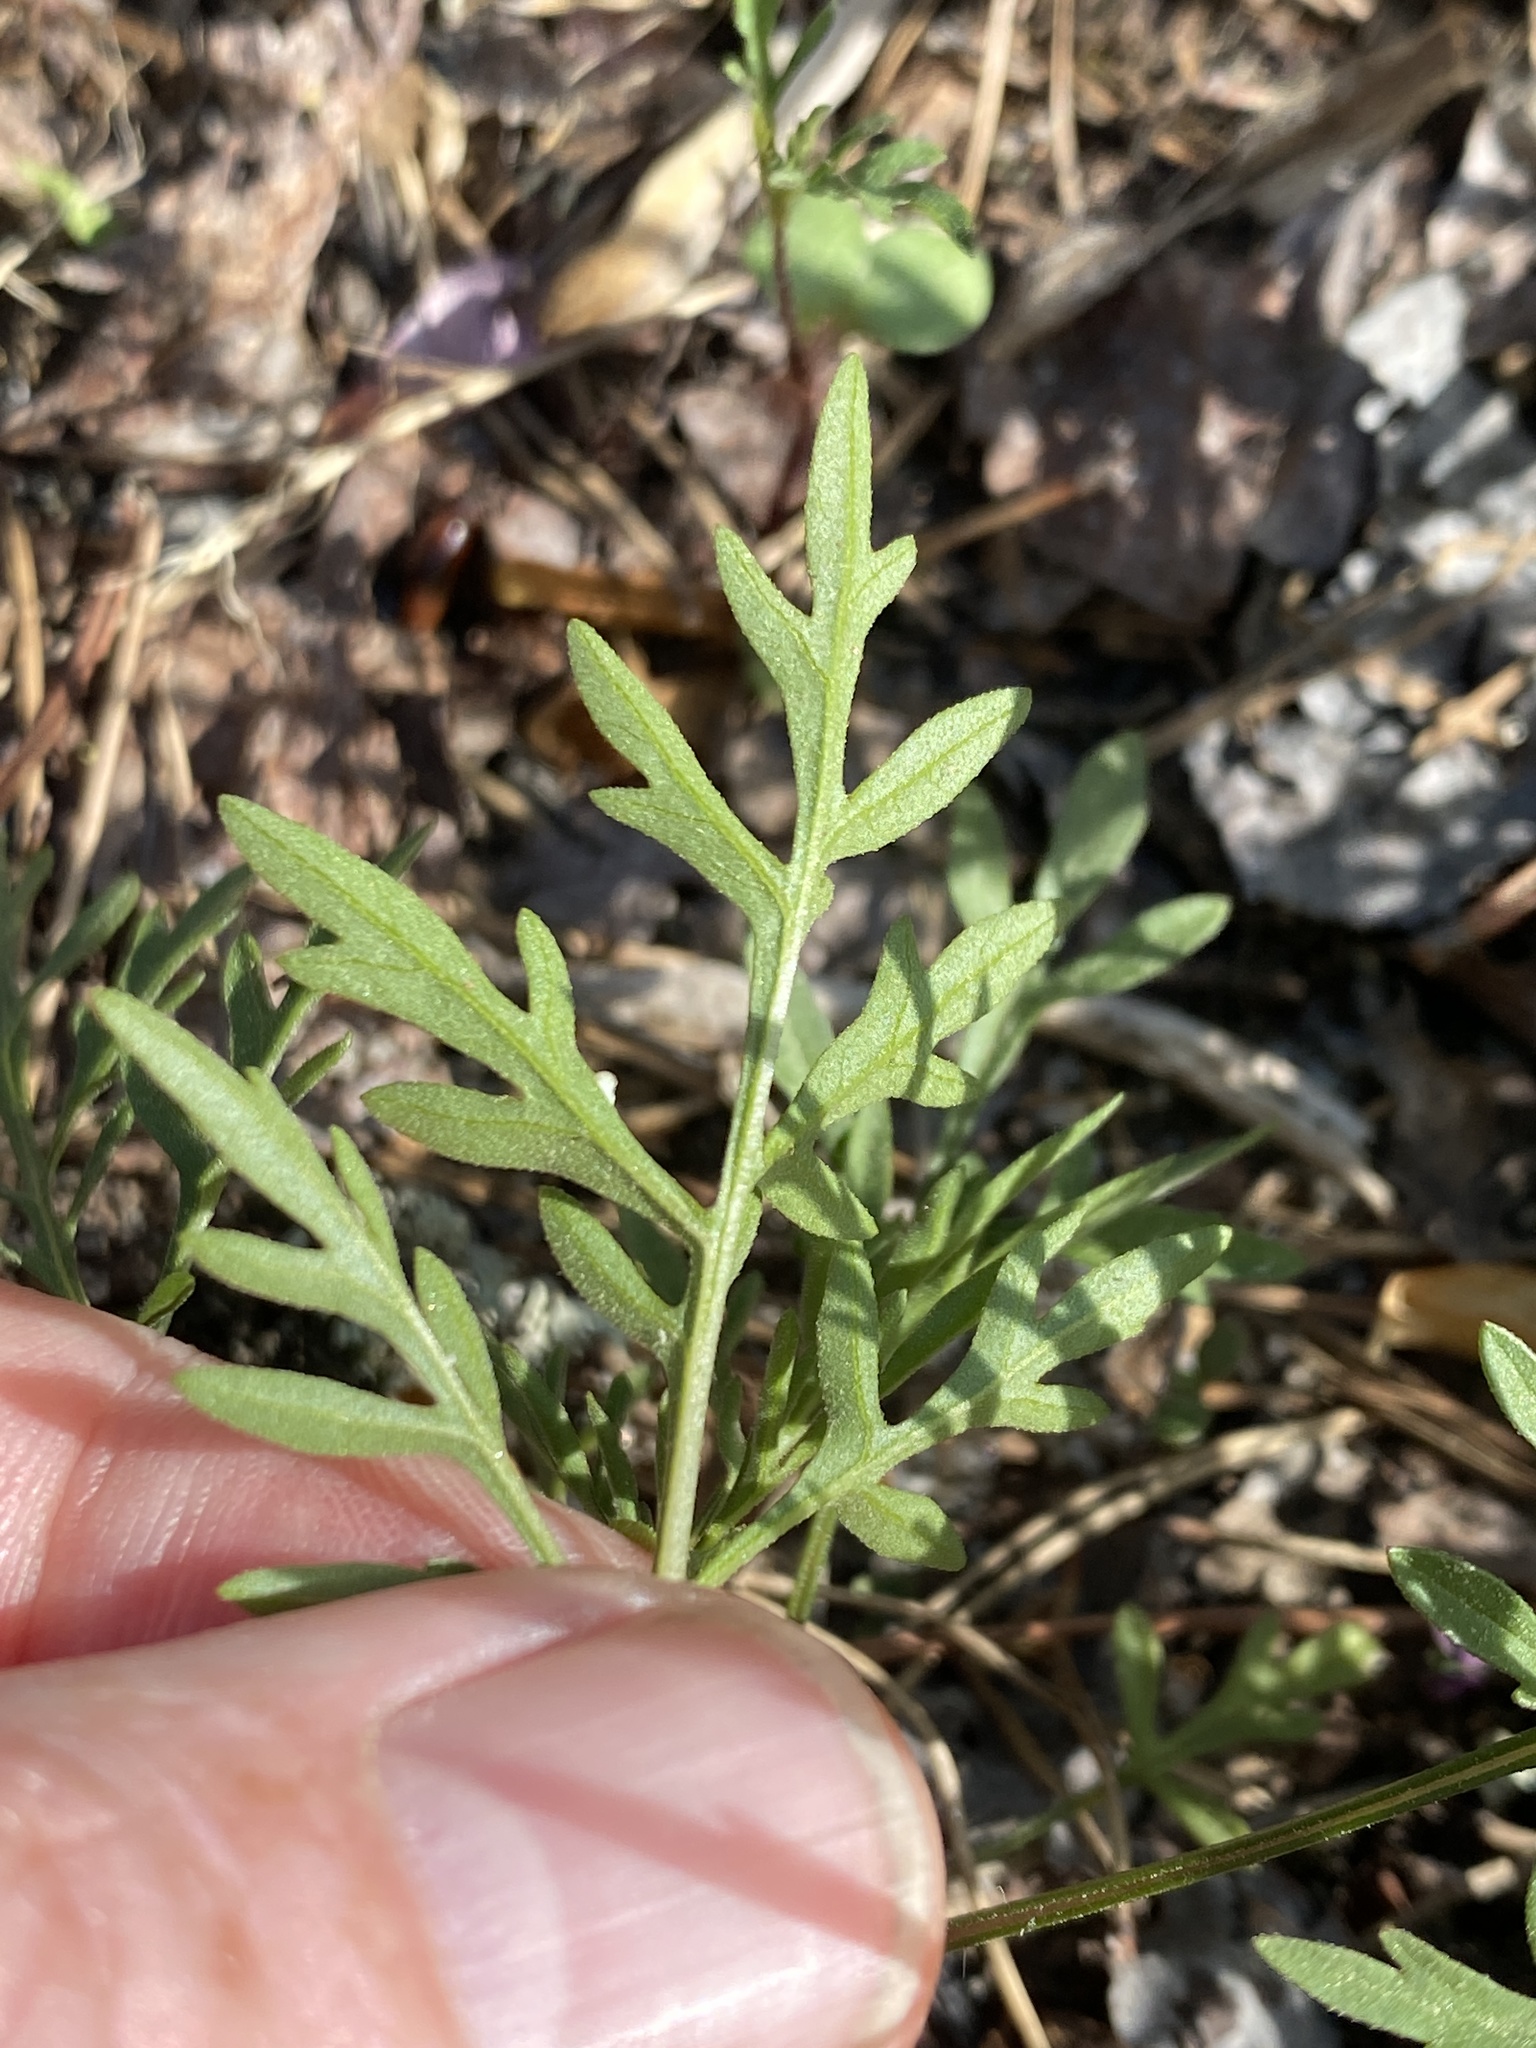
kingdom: Plantae
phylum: Tracheophyta
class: Magnoliopsida
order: Asterales
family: Asteraceae
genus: Ambrosia
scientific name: Ambrosia porcheri
